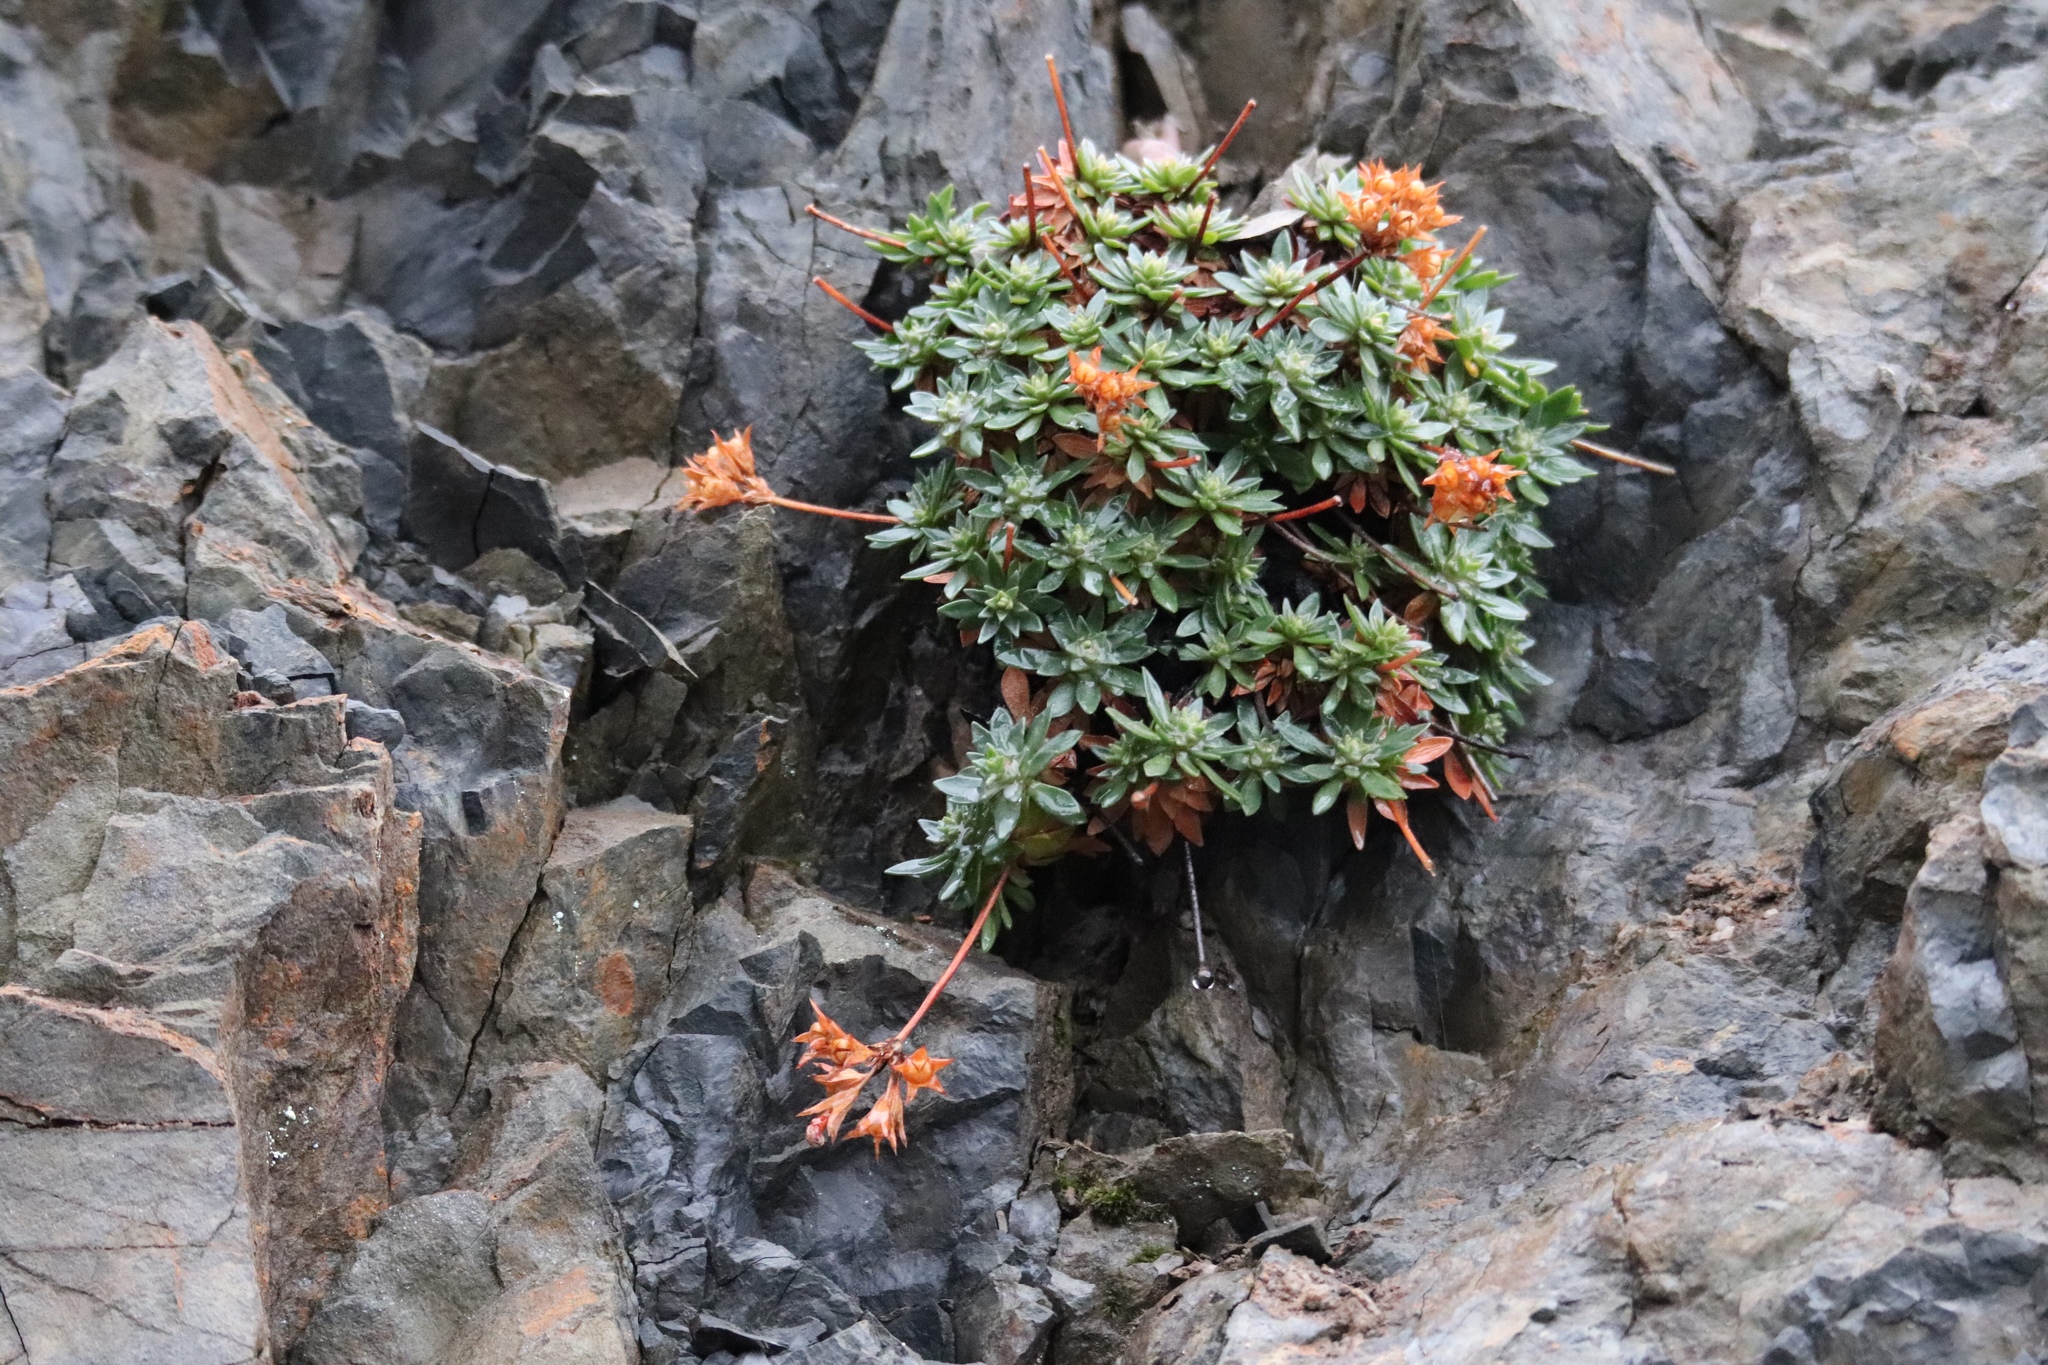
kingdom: Plantae
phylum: Tracheophyta
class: Magnoliopsida
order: Ericales
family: Primulaceae
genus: Androsace
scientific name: Androsace laevigata
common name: Cliff dwarf-primrose
